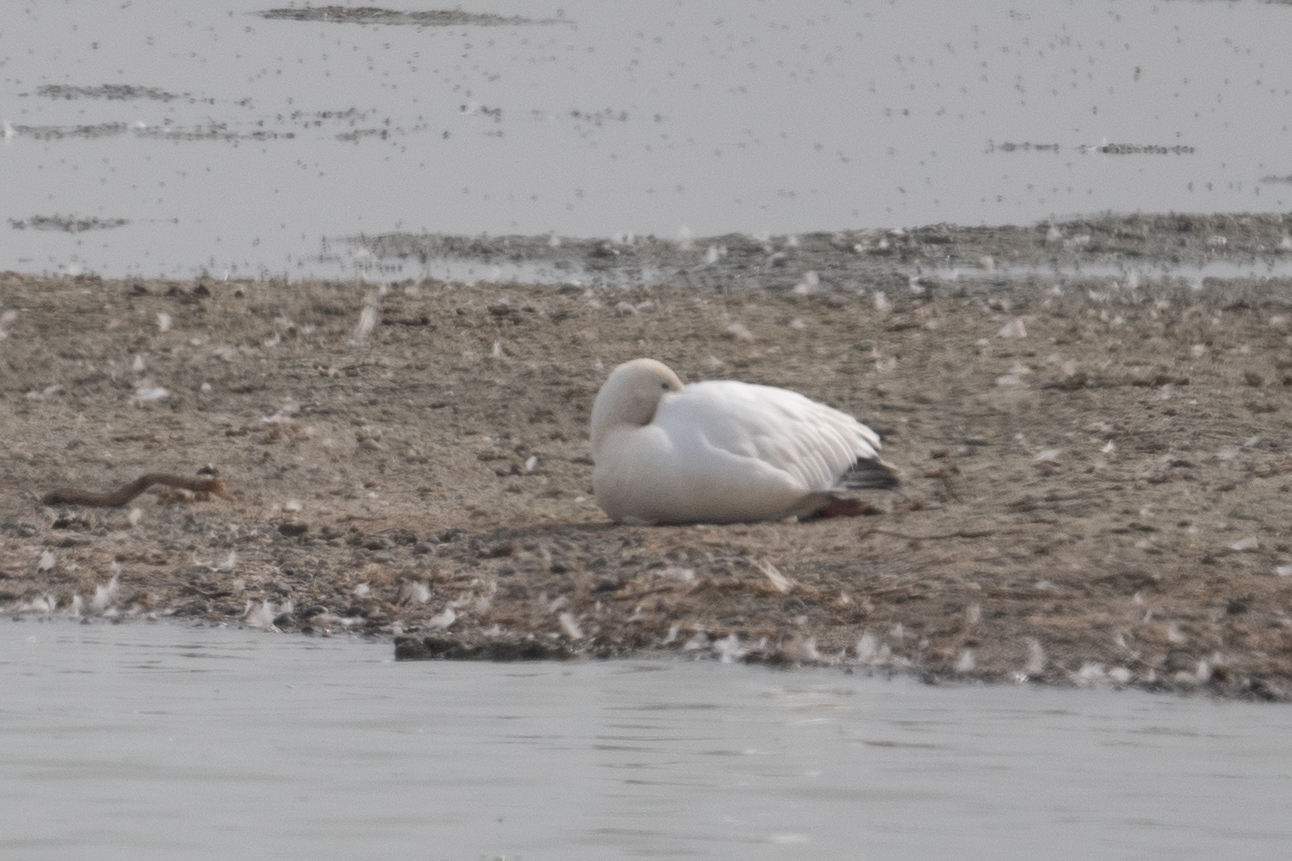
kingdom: Animalia
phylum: Chordata
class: Aves
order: Anseriformes
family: Anatidae
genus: Anser
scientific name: Anser caerulescens
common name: Snow goose
